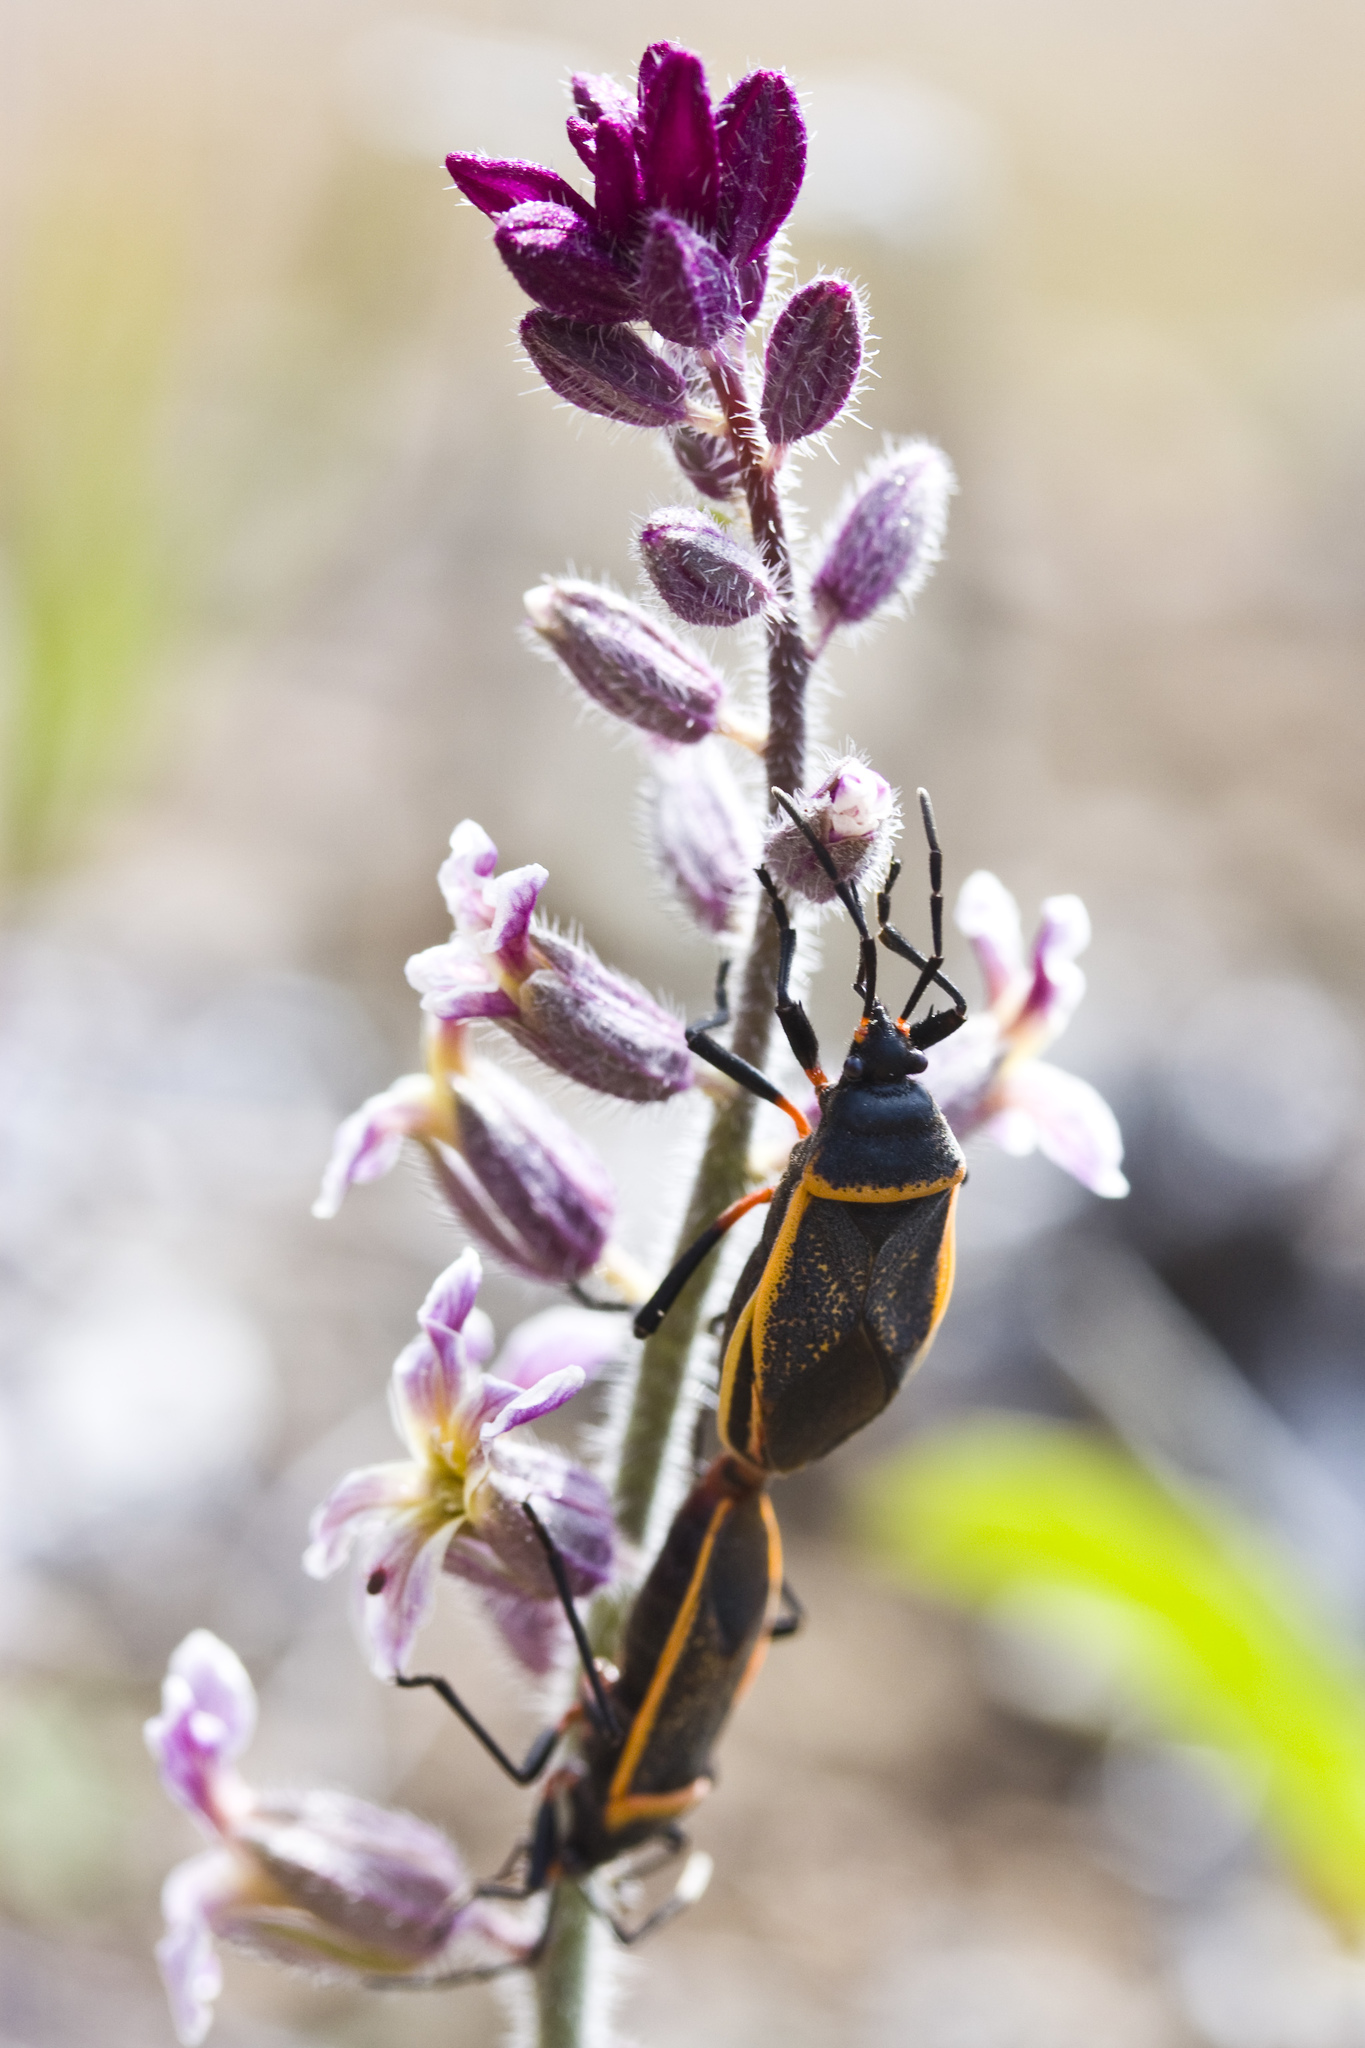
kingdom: Animalia
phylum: Arthropoda
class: Insecta
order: Hemiptera
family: Largidae
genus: Largus
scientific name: Largus californicus
